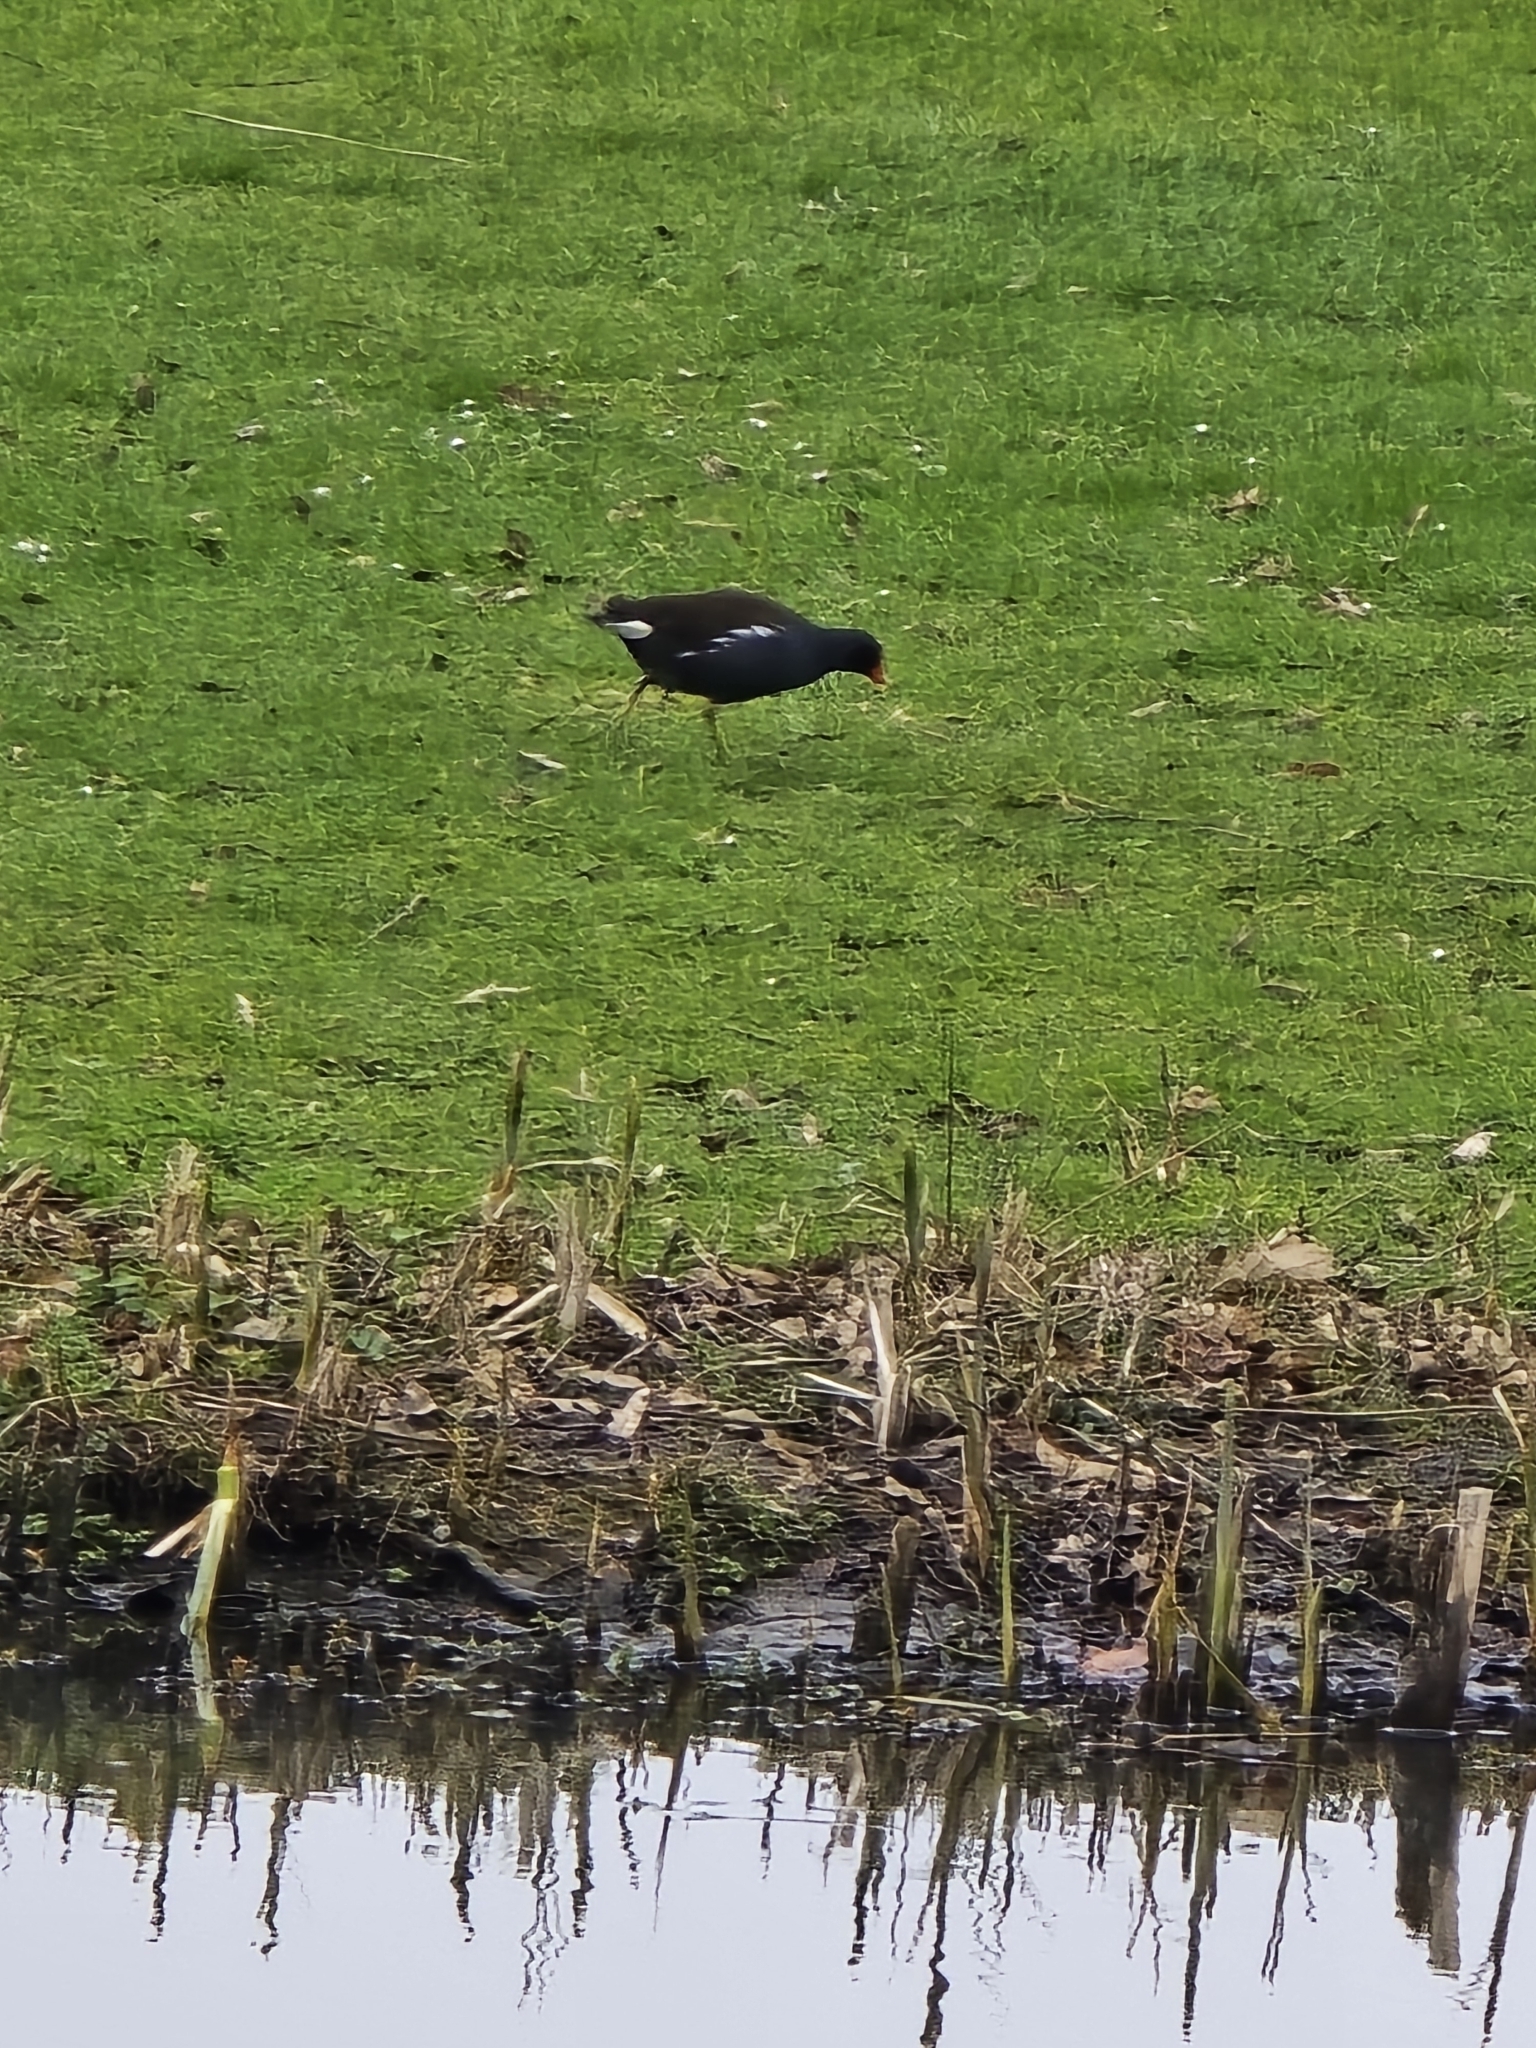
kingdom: Animalia
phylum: Chordata
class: Aves
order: Gruiformes
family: Rallidae
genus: Gallinula
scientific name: Gallinula chloropus
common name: Common moorhen
